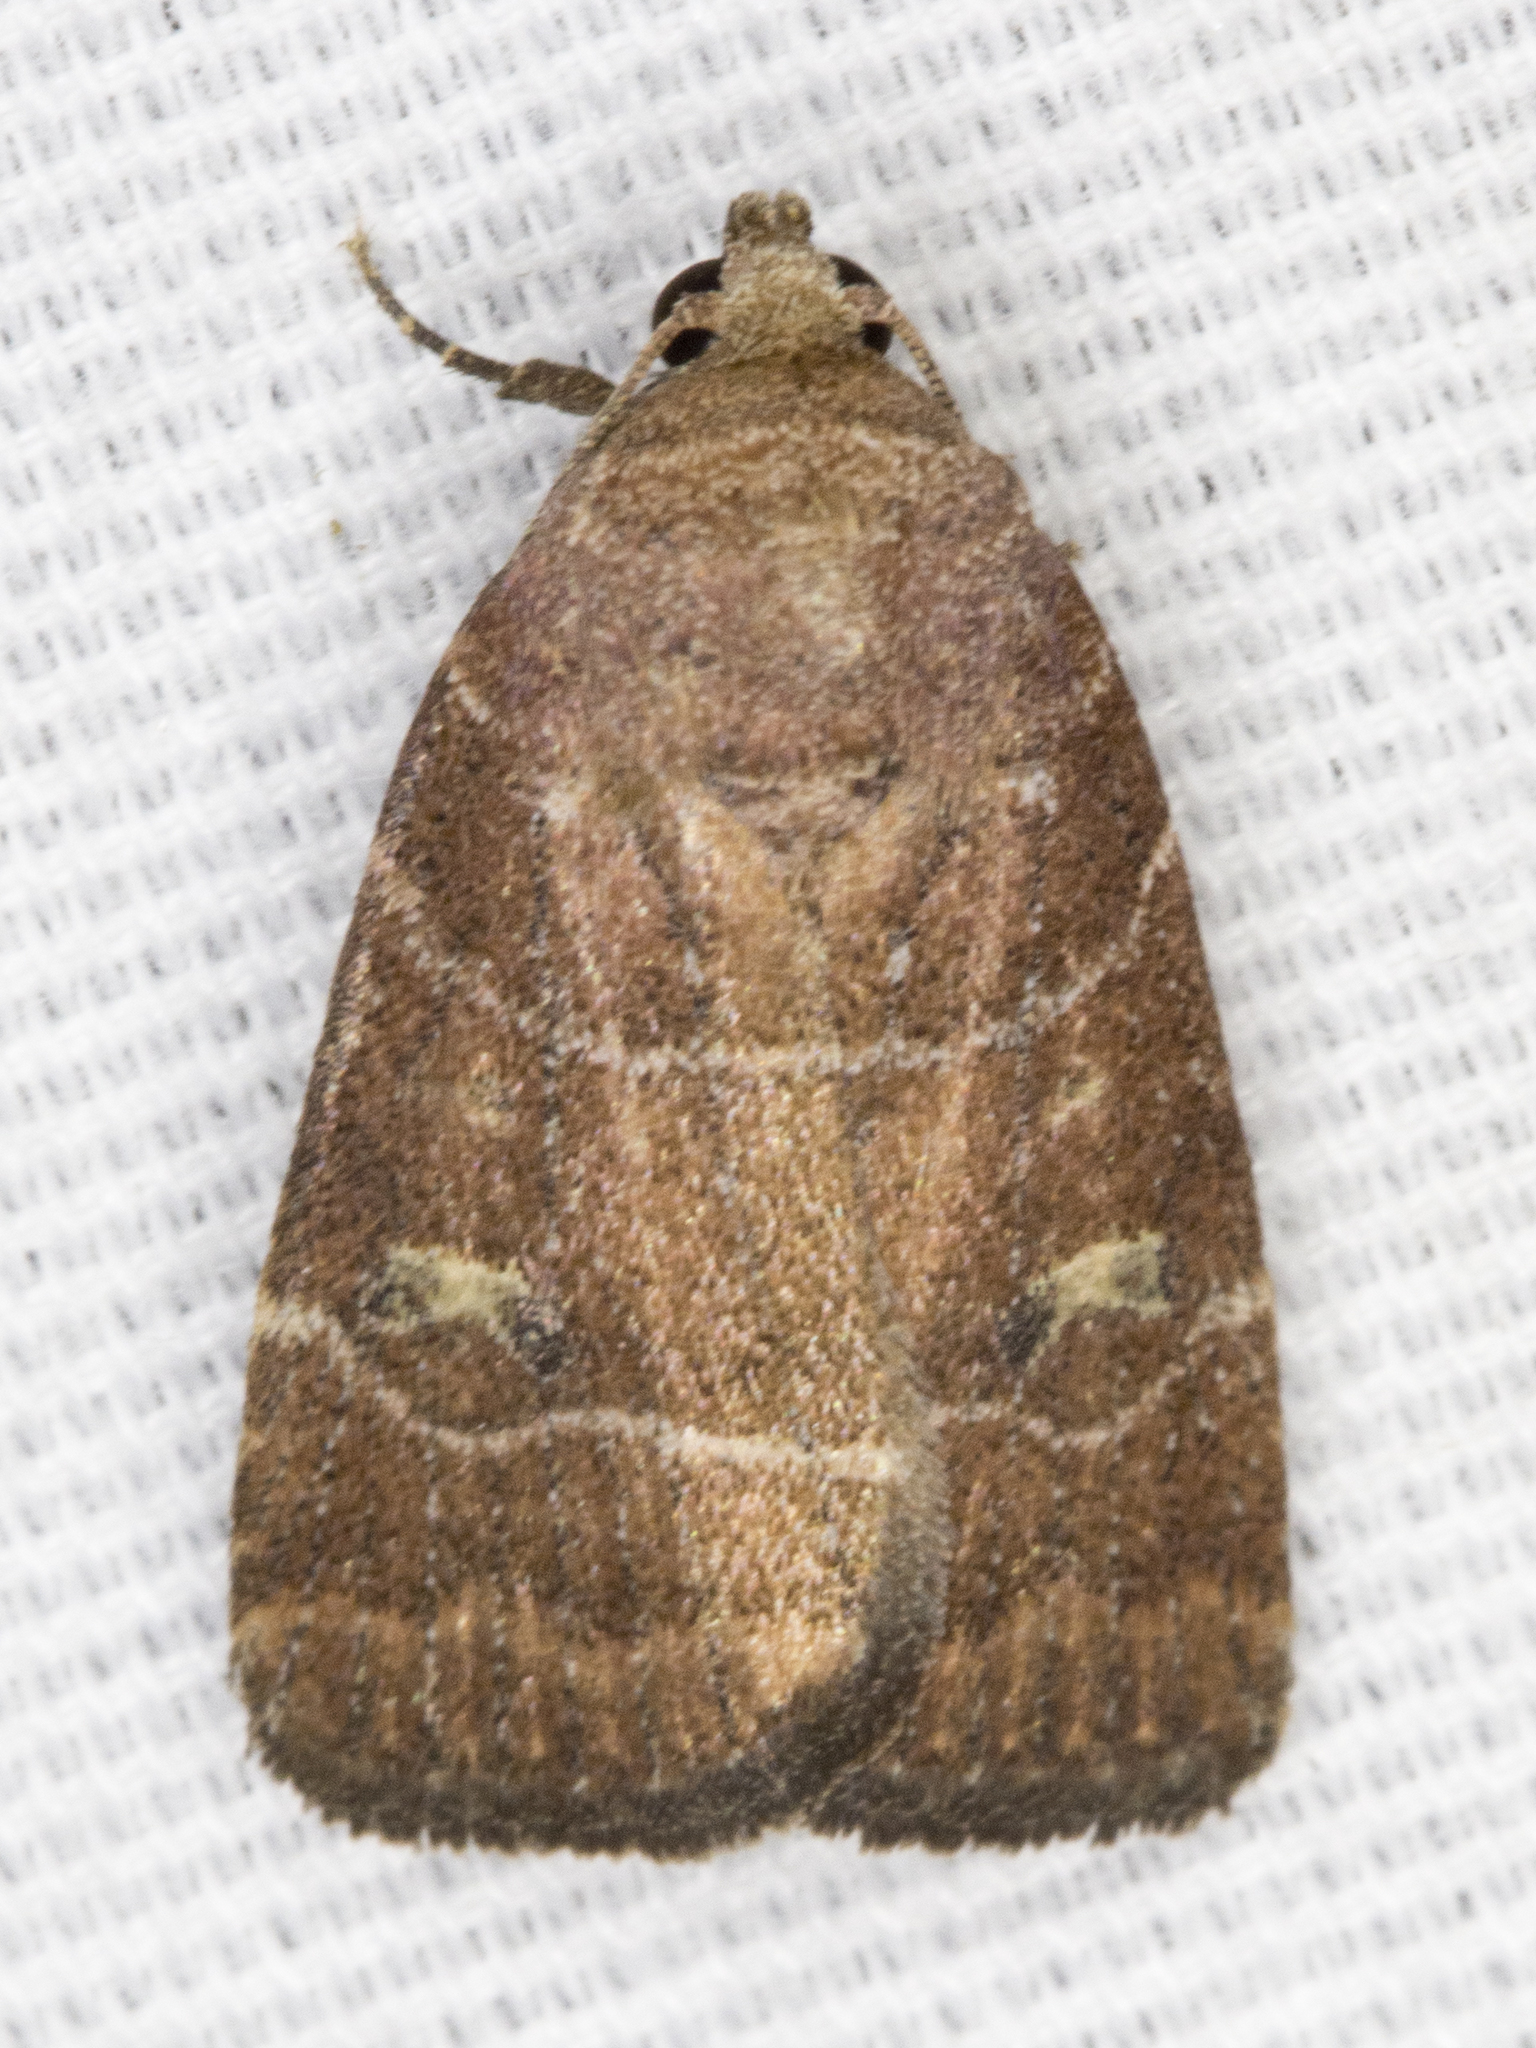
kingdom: Animalia
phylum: Arthropoda
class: Insecta
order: Lepidoptera
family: Noctuidae
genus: Elaphria
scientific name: Elaphria grata
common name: Grateful midget moth
